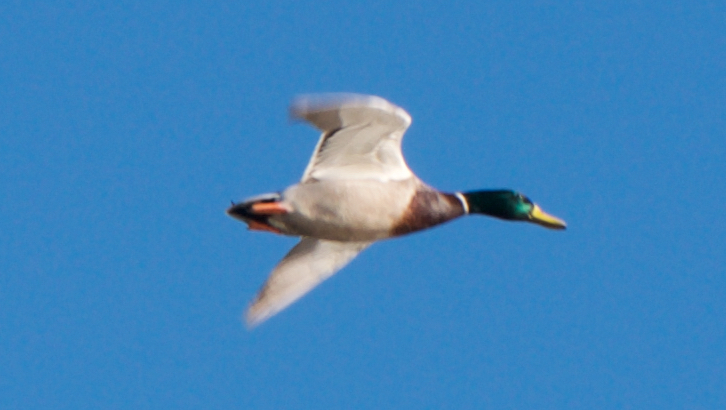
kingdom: Animalia
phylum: Chordata
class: Aves
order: Anseriformes
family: Anatidae
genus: Anas
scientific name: Anas platyrhynchos
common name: Mallard
